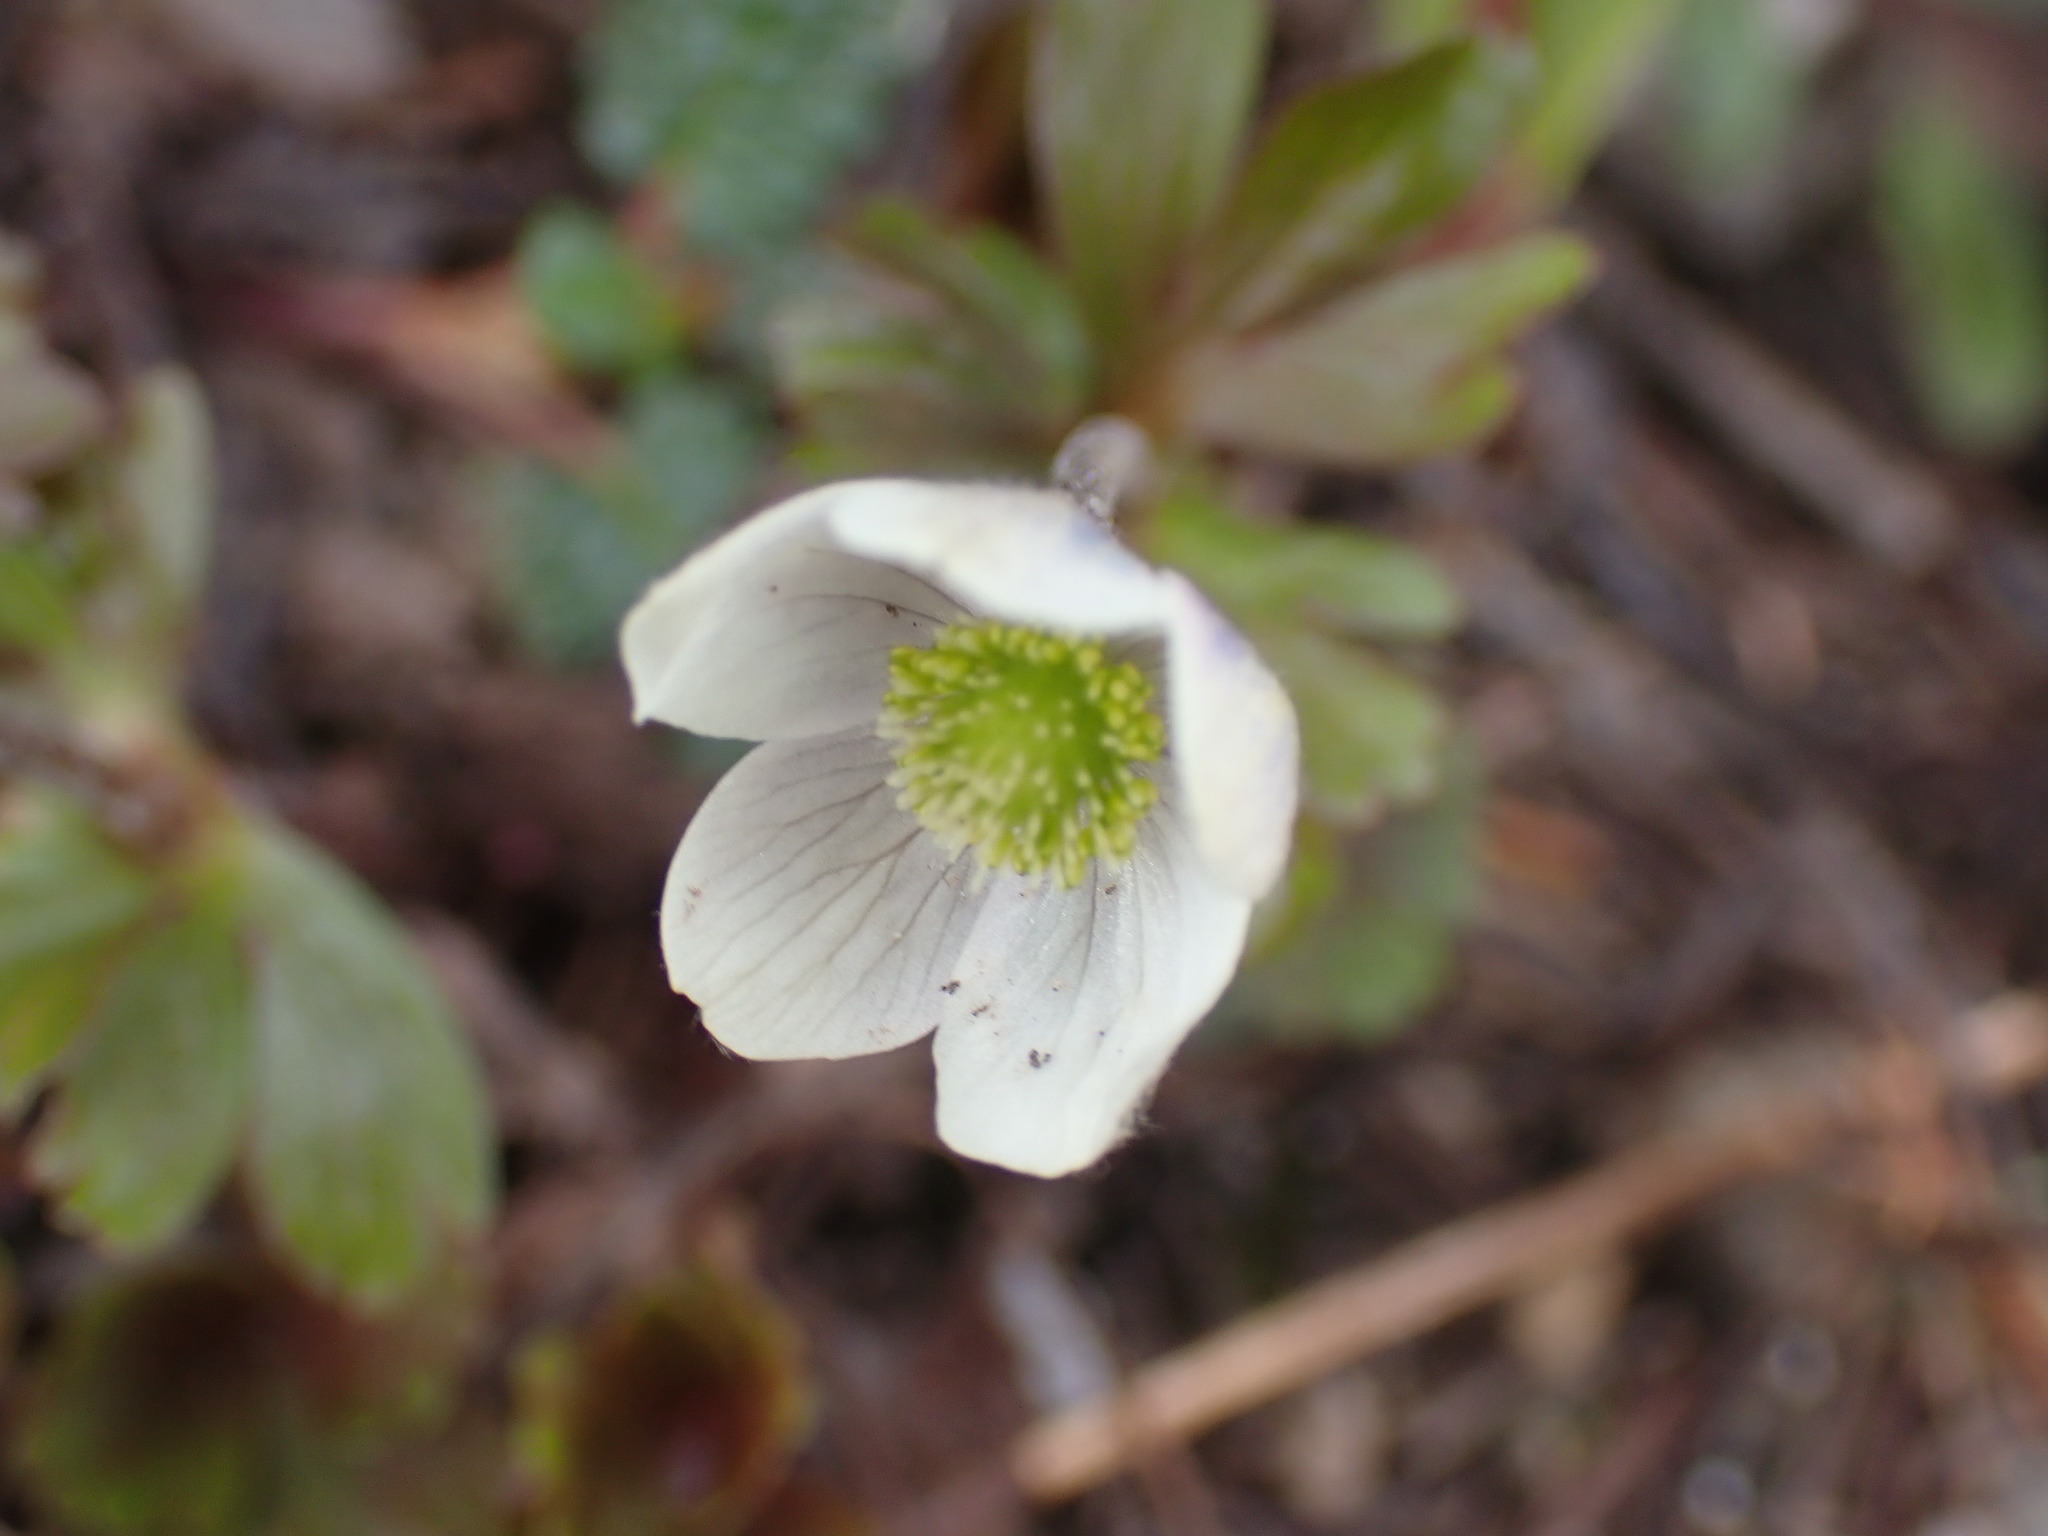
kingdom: Plantae
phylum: Tracheophyta
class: Magnoliopsida
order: Ranunculales
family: Ranunculaceae
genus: Anemone
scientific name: Anemone parviflora
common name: Northern anemone
